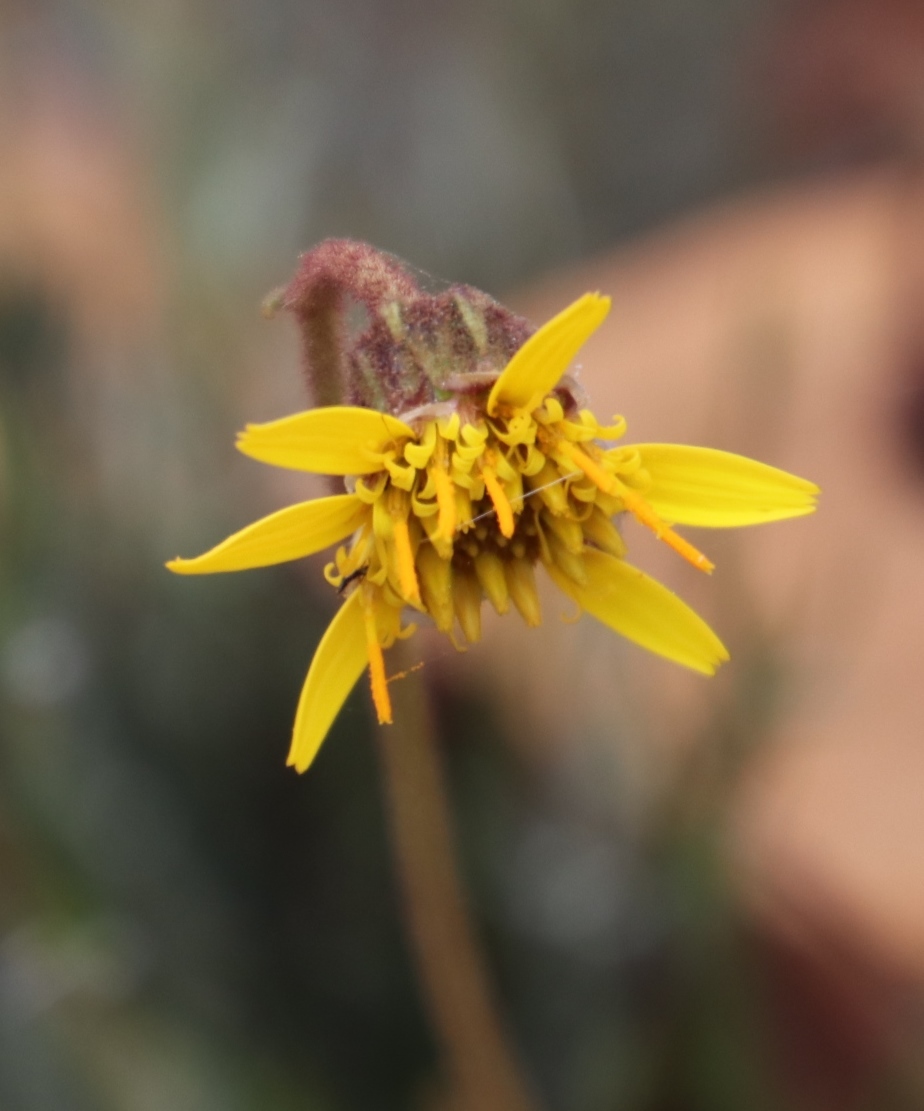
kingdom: Plantae
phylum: Tracheophyta
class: Magnoliopsida
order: Asterales
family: Asteraceae
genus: Heterolepis
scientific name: Heterolepis peduncularis
